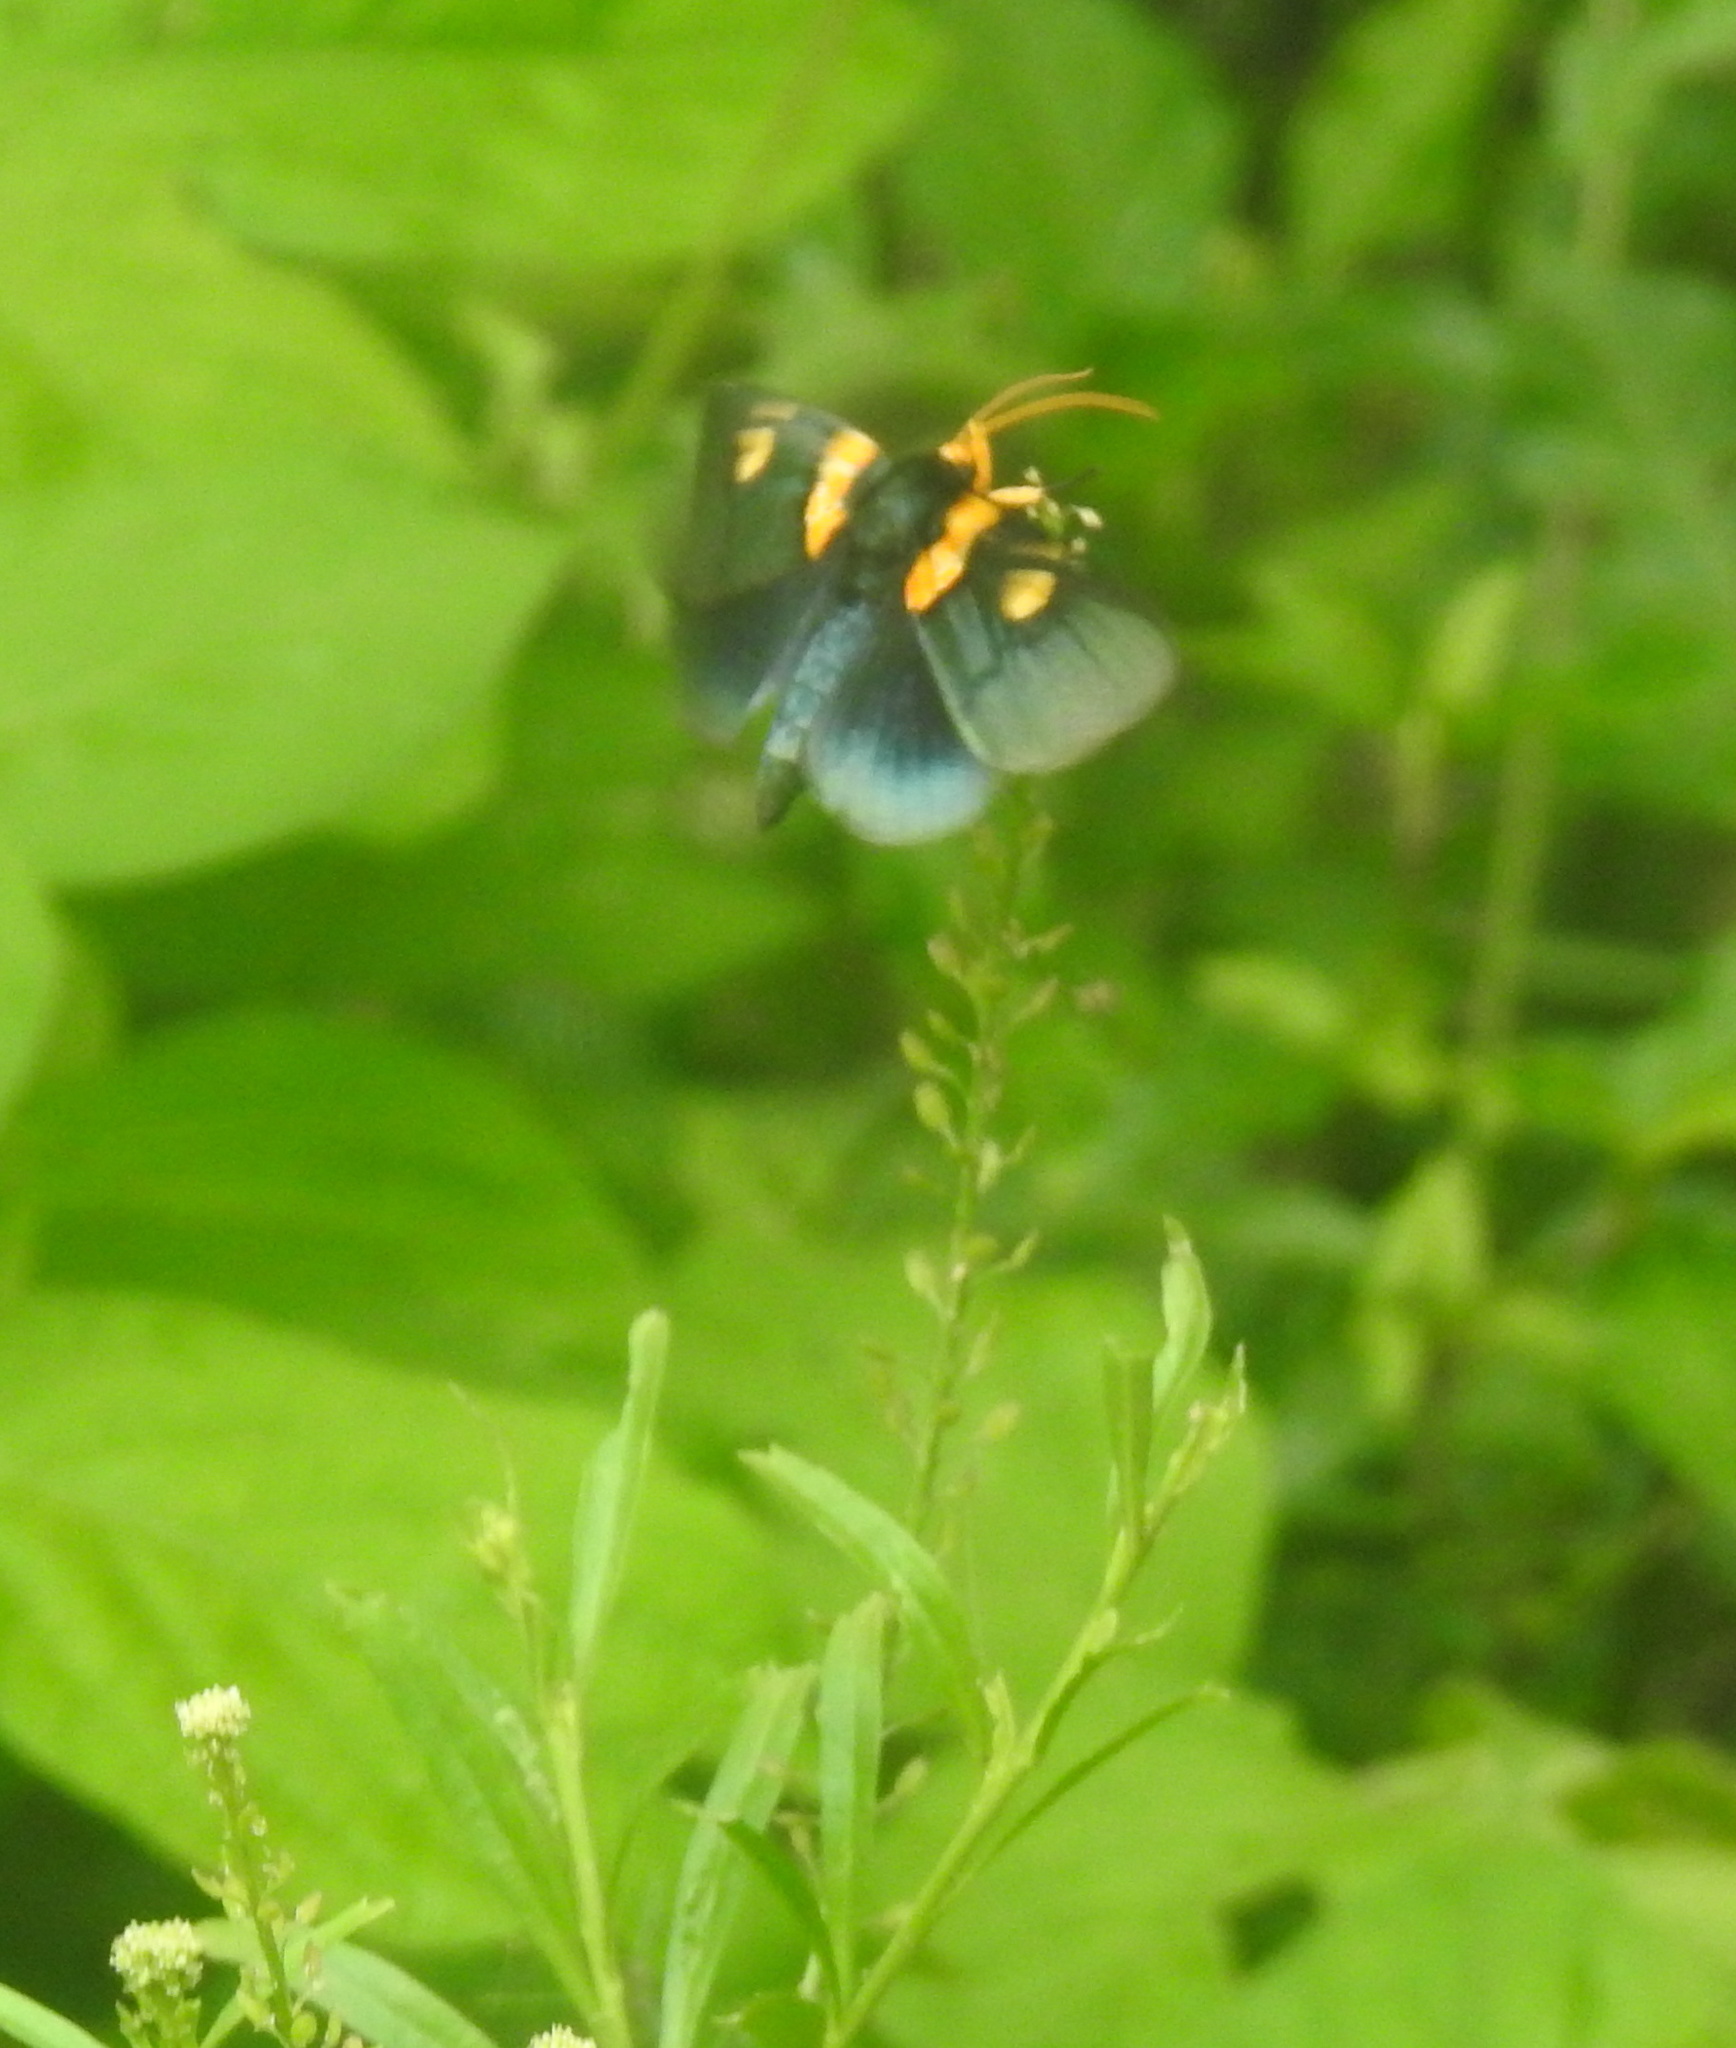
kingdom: Animalia
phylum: Arthropoda
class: Insecta
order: Lepidoptera
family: Erebidae
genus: Egybolis
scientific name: Egybolis vaillantina
